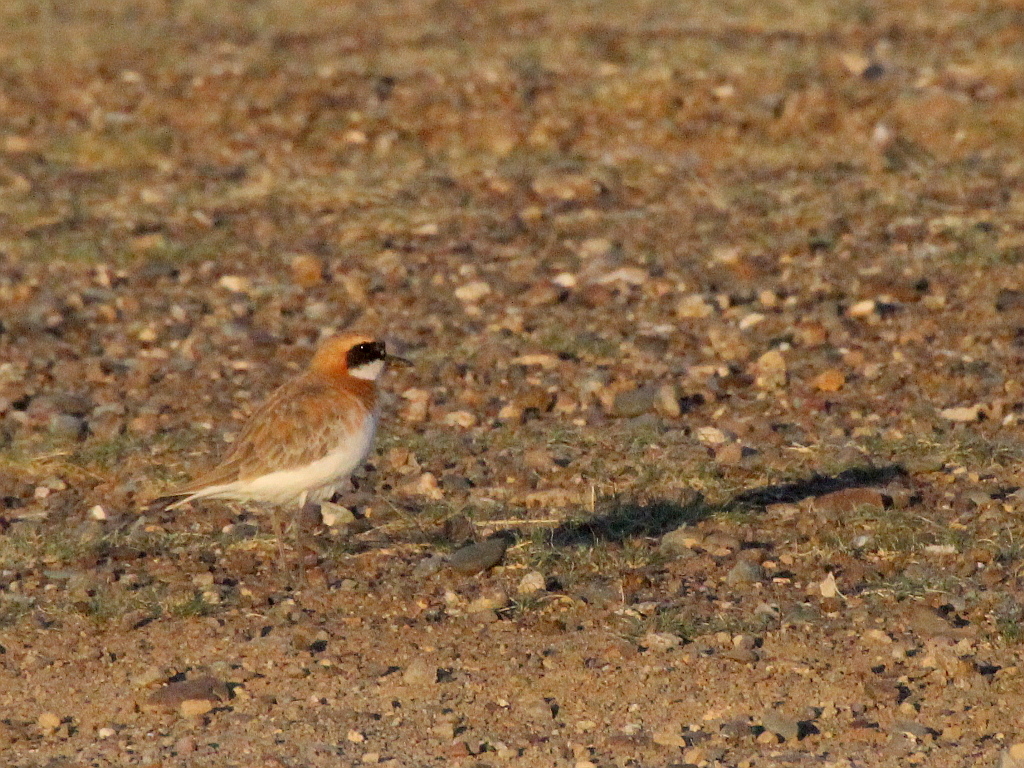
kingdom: Animalia
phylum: Chordata
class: Aves
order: Charadriiformes
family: Charadriidae
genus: Charadrius
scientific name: Charadrius leschenaultii
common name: Greater sand plover
